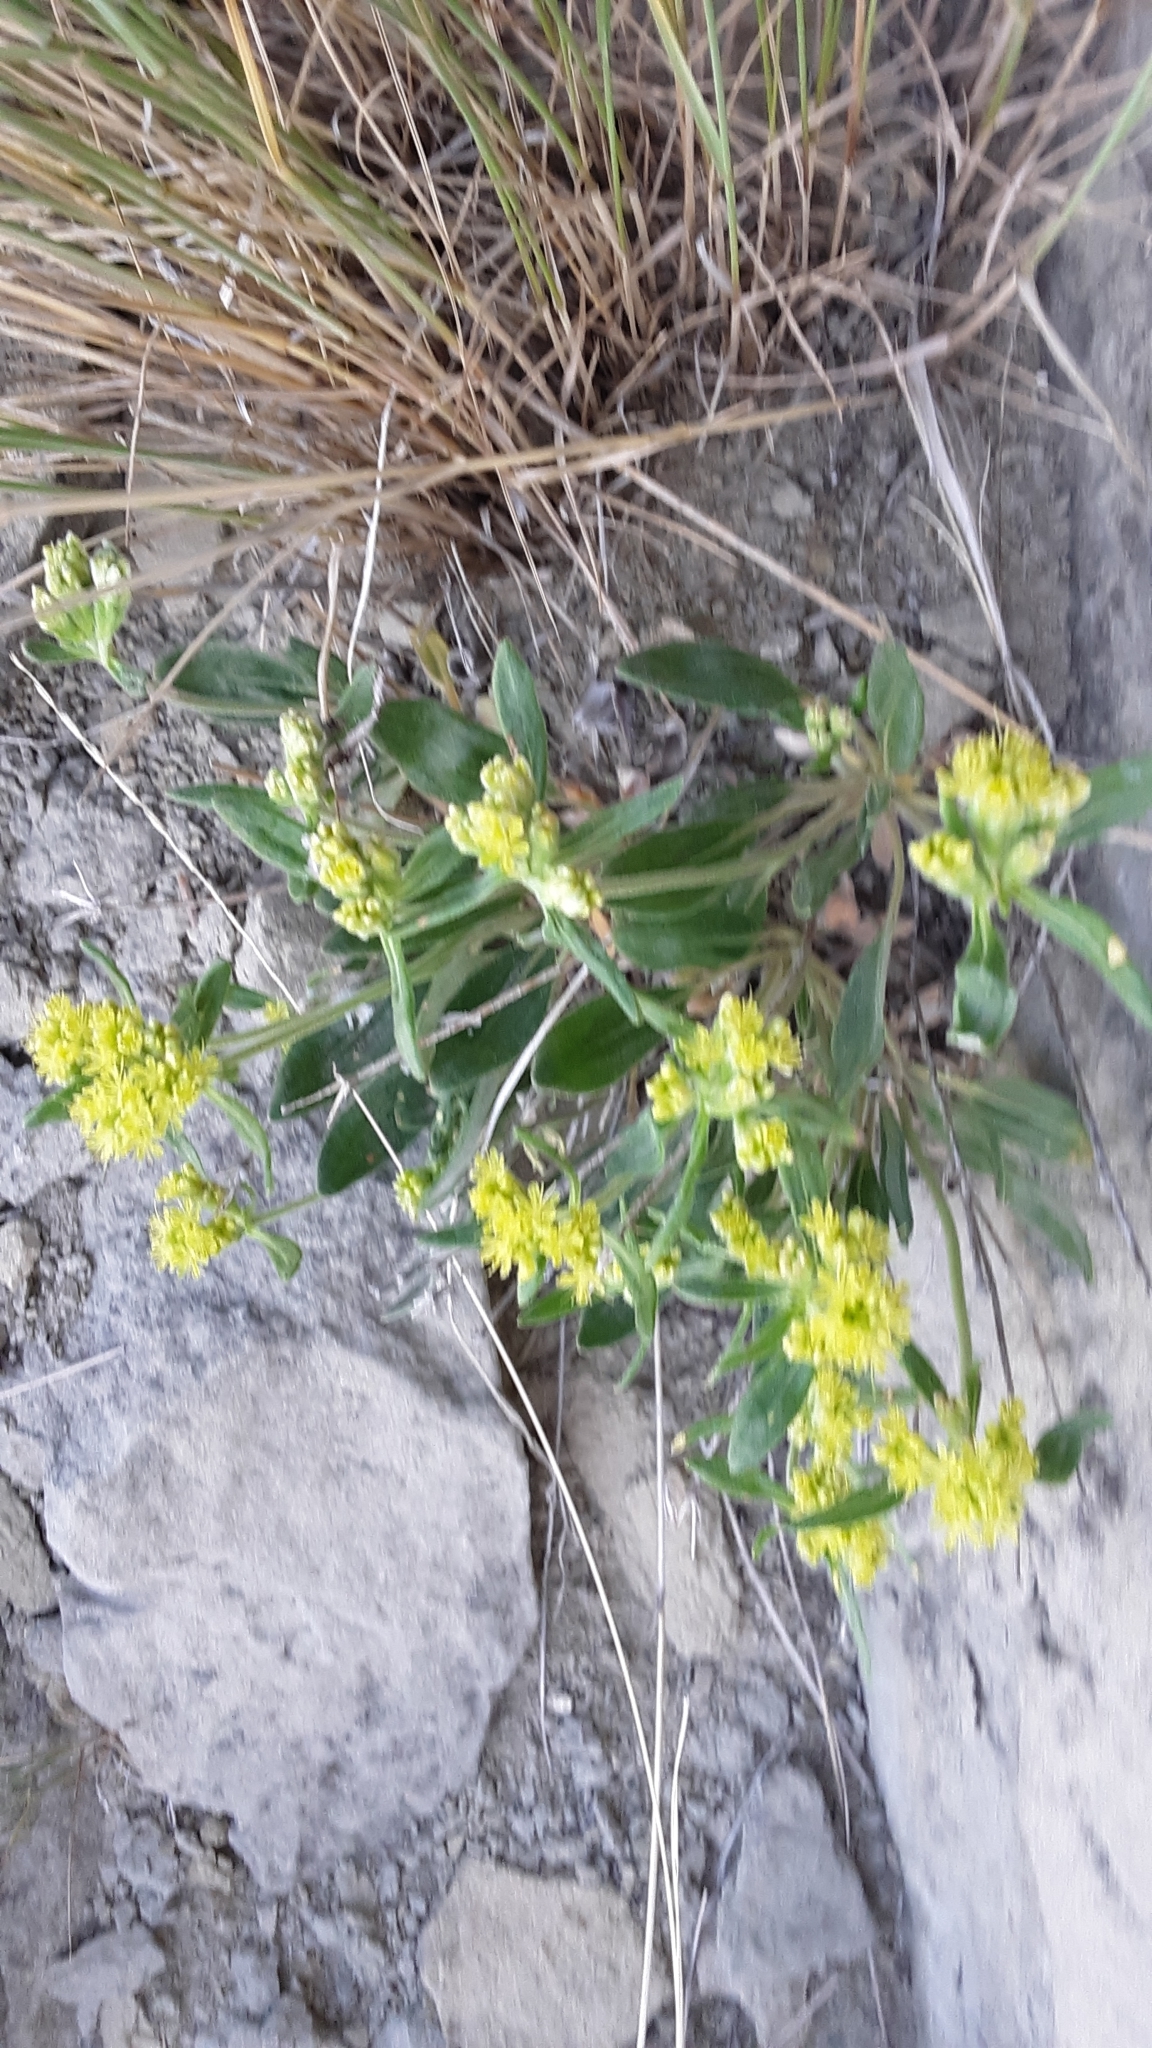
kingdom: Plantae
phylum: Tracheophyta
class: Magnoliopsida
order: Caryophyllales
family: Polygonaceae
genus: Eriogonum
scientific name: Eriogonum flavum
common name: Alpine golden wild buckwheat
